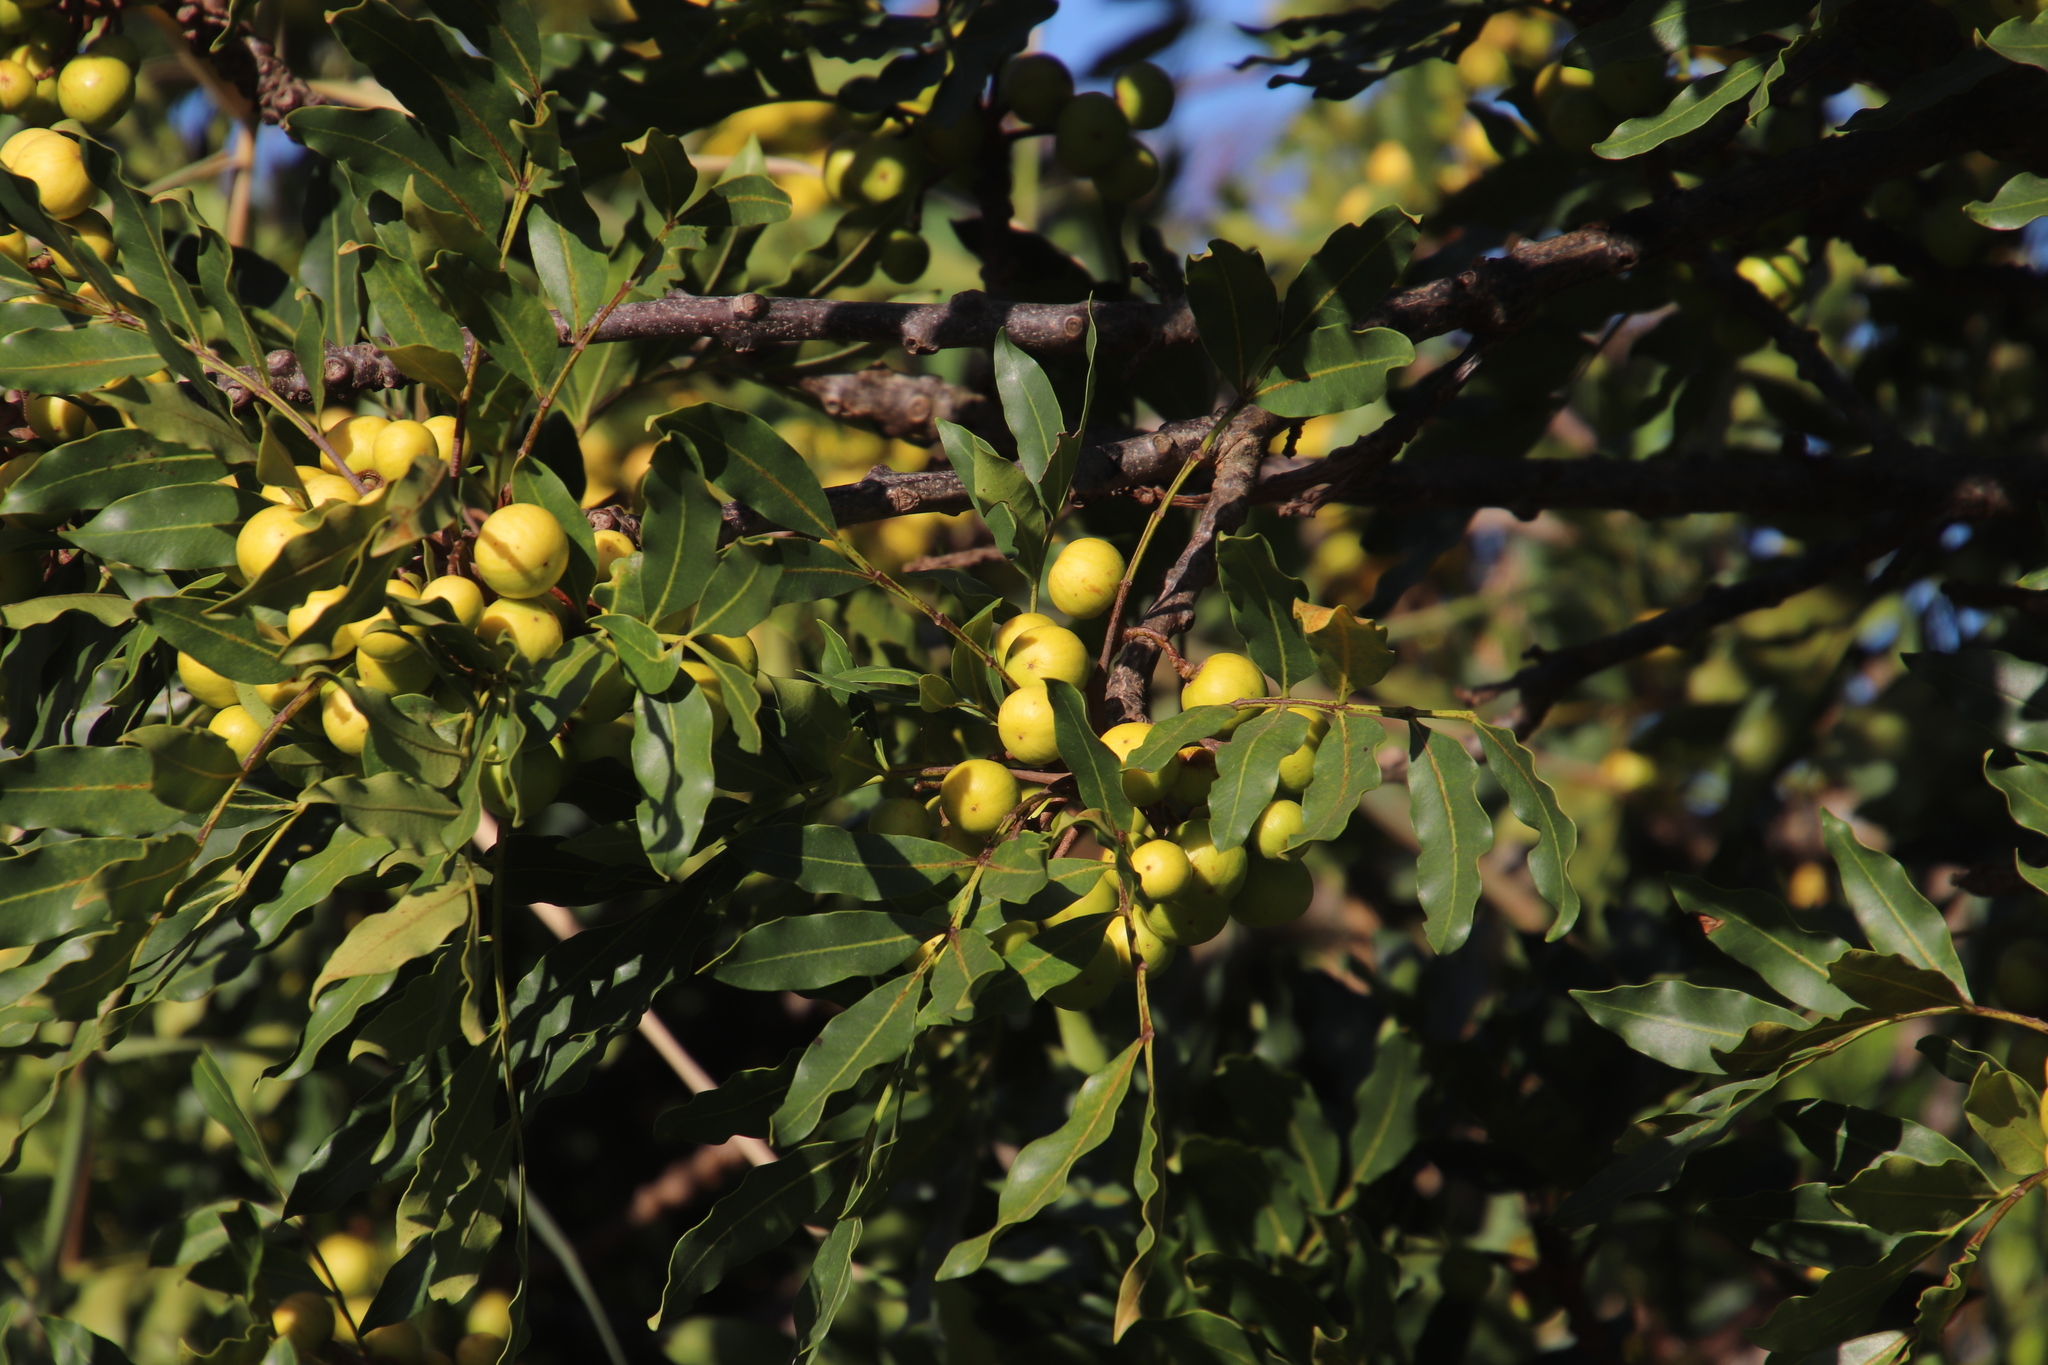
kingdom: Plantae
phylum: Tracheophyta
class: Magnoliopsida
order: Sapindales
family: Meliaceae
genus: Ekebergia
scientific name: Ekebergia capensis
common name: Cape-ash
